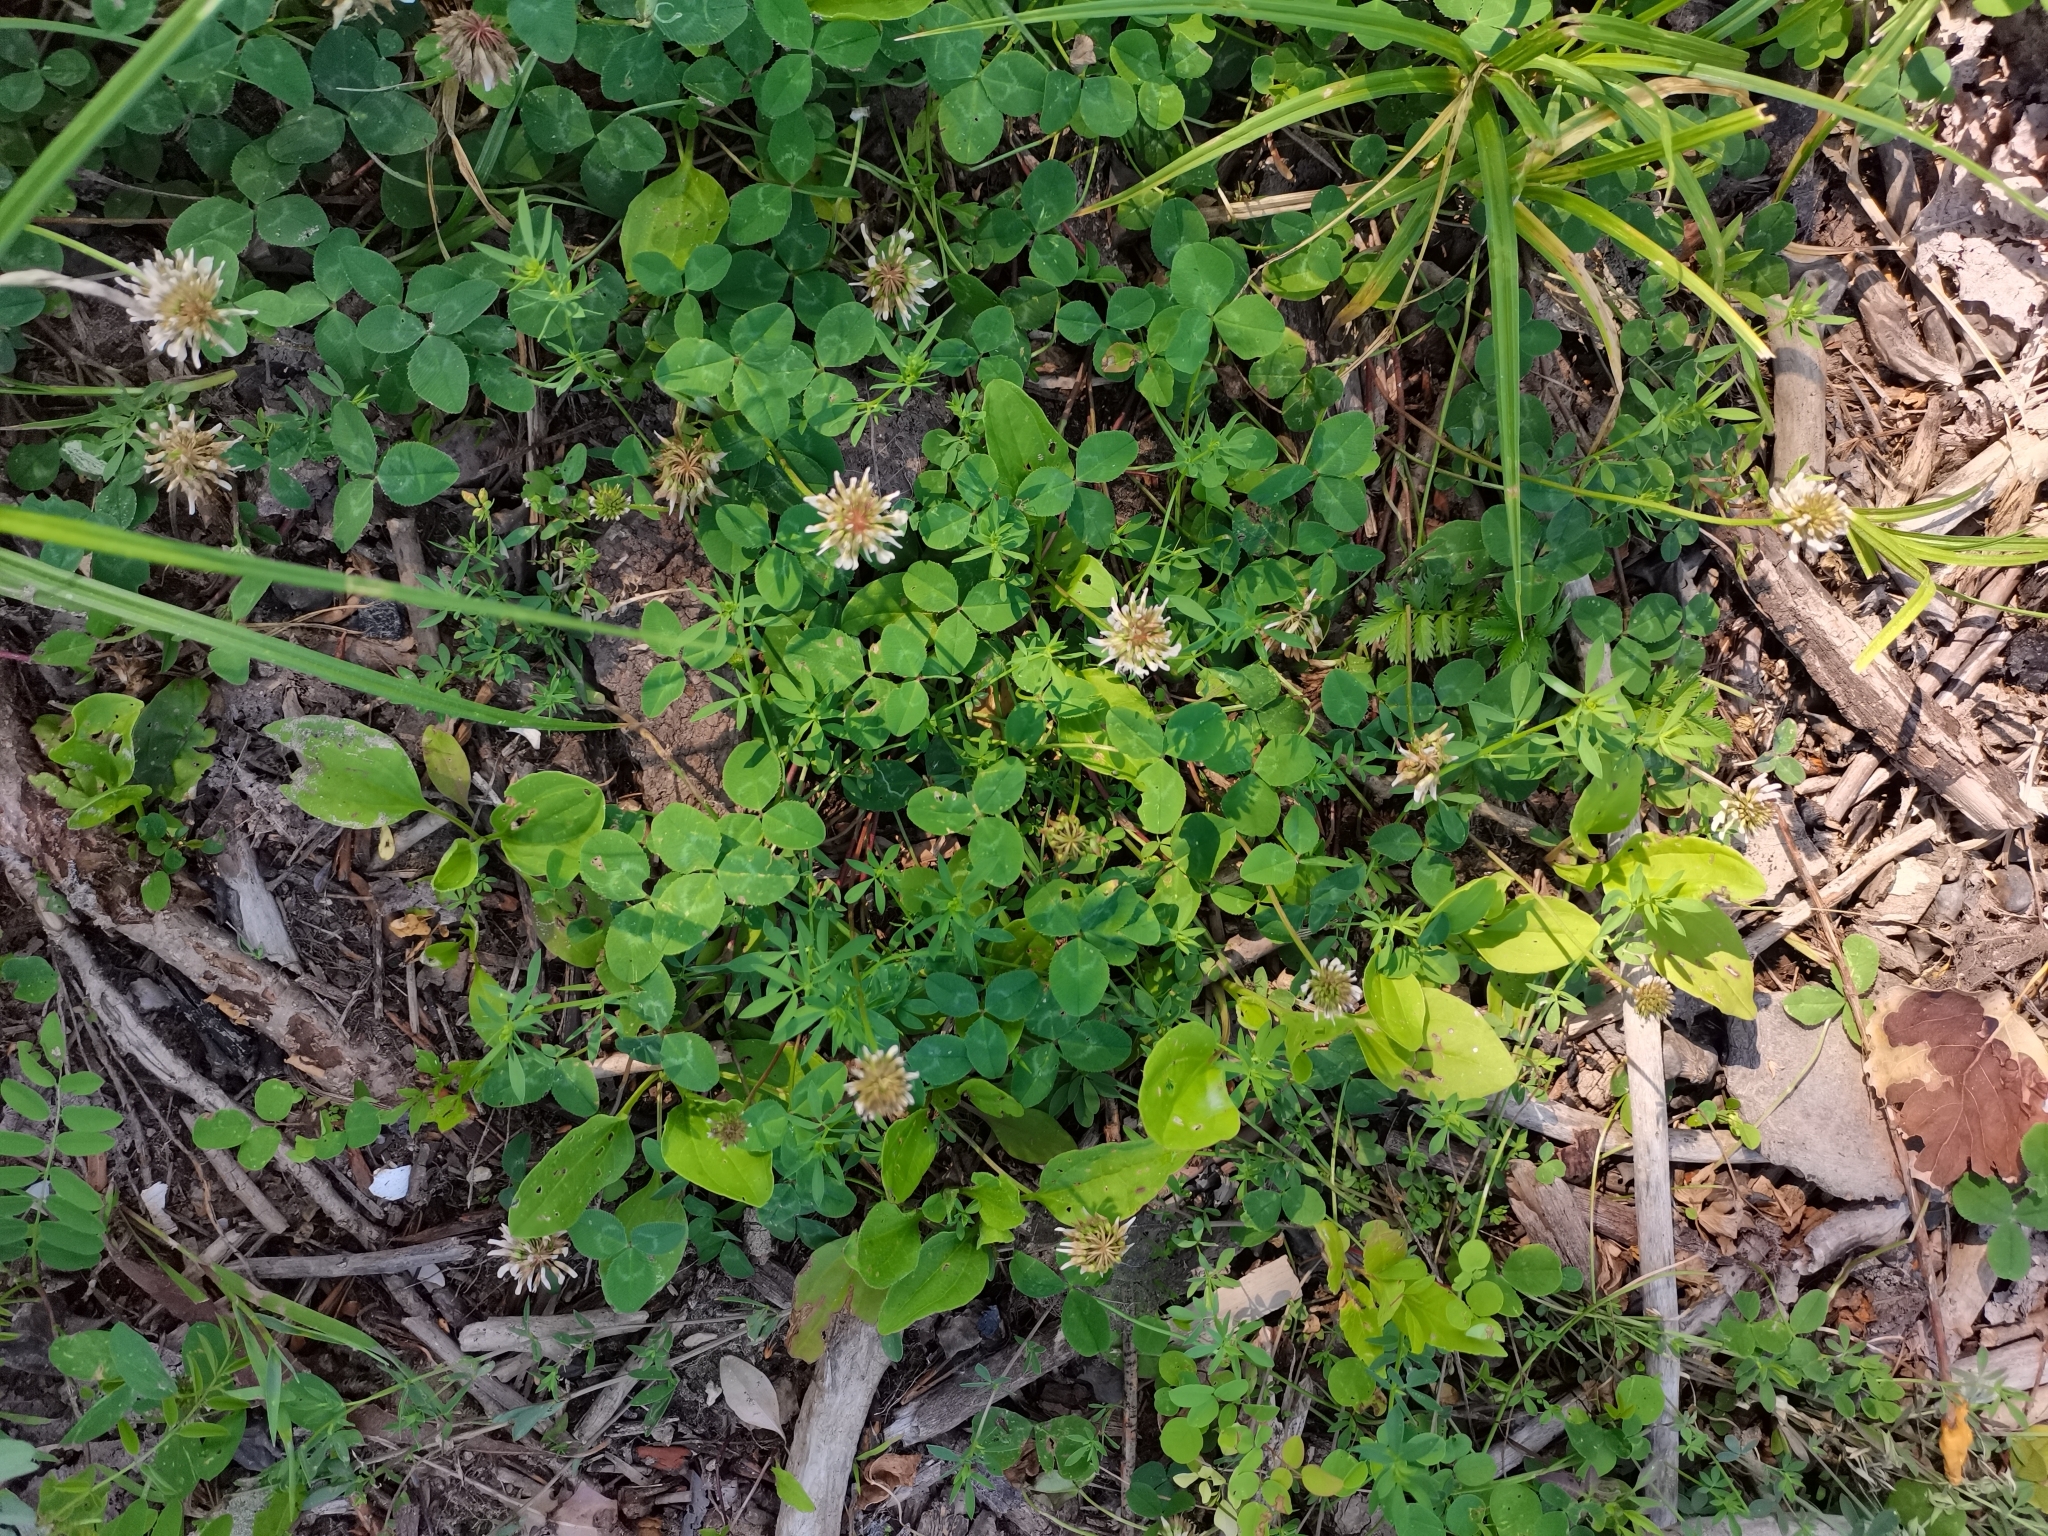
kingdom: Plantae
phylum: Tracheophyta
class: Magnoliopsida
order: Fabales
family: Fabaceae
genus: Trifolium
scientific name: Trifolium repens
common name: White clover
